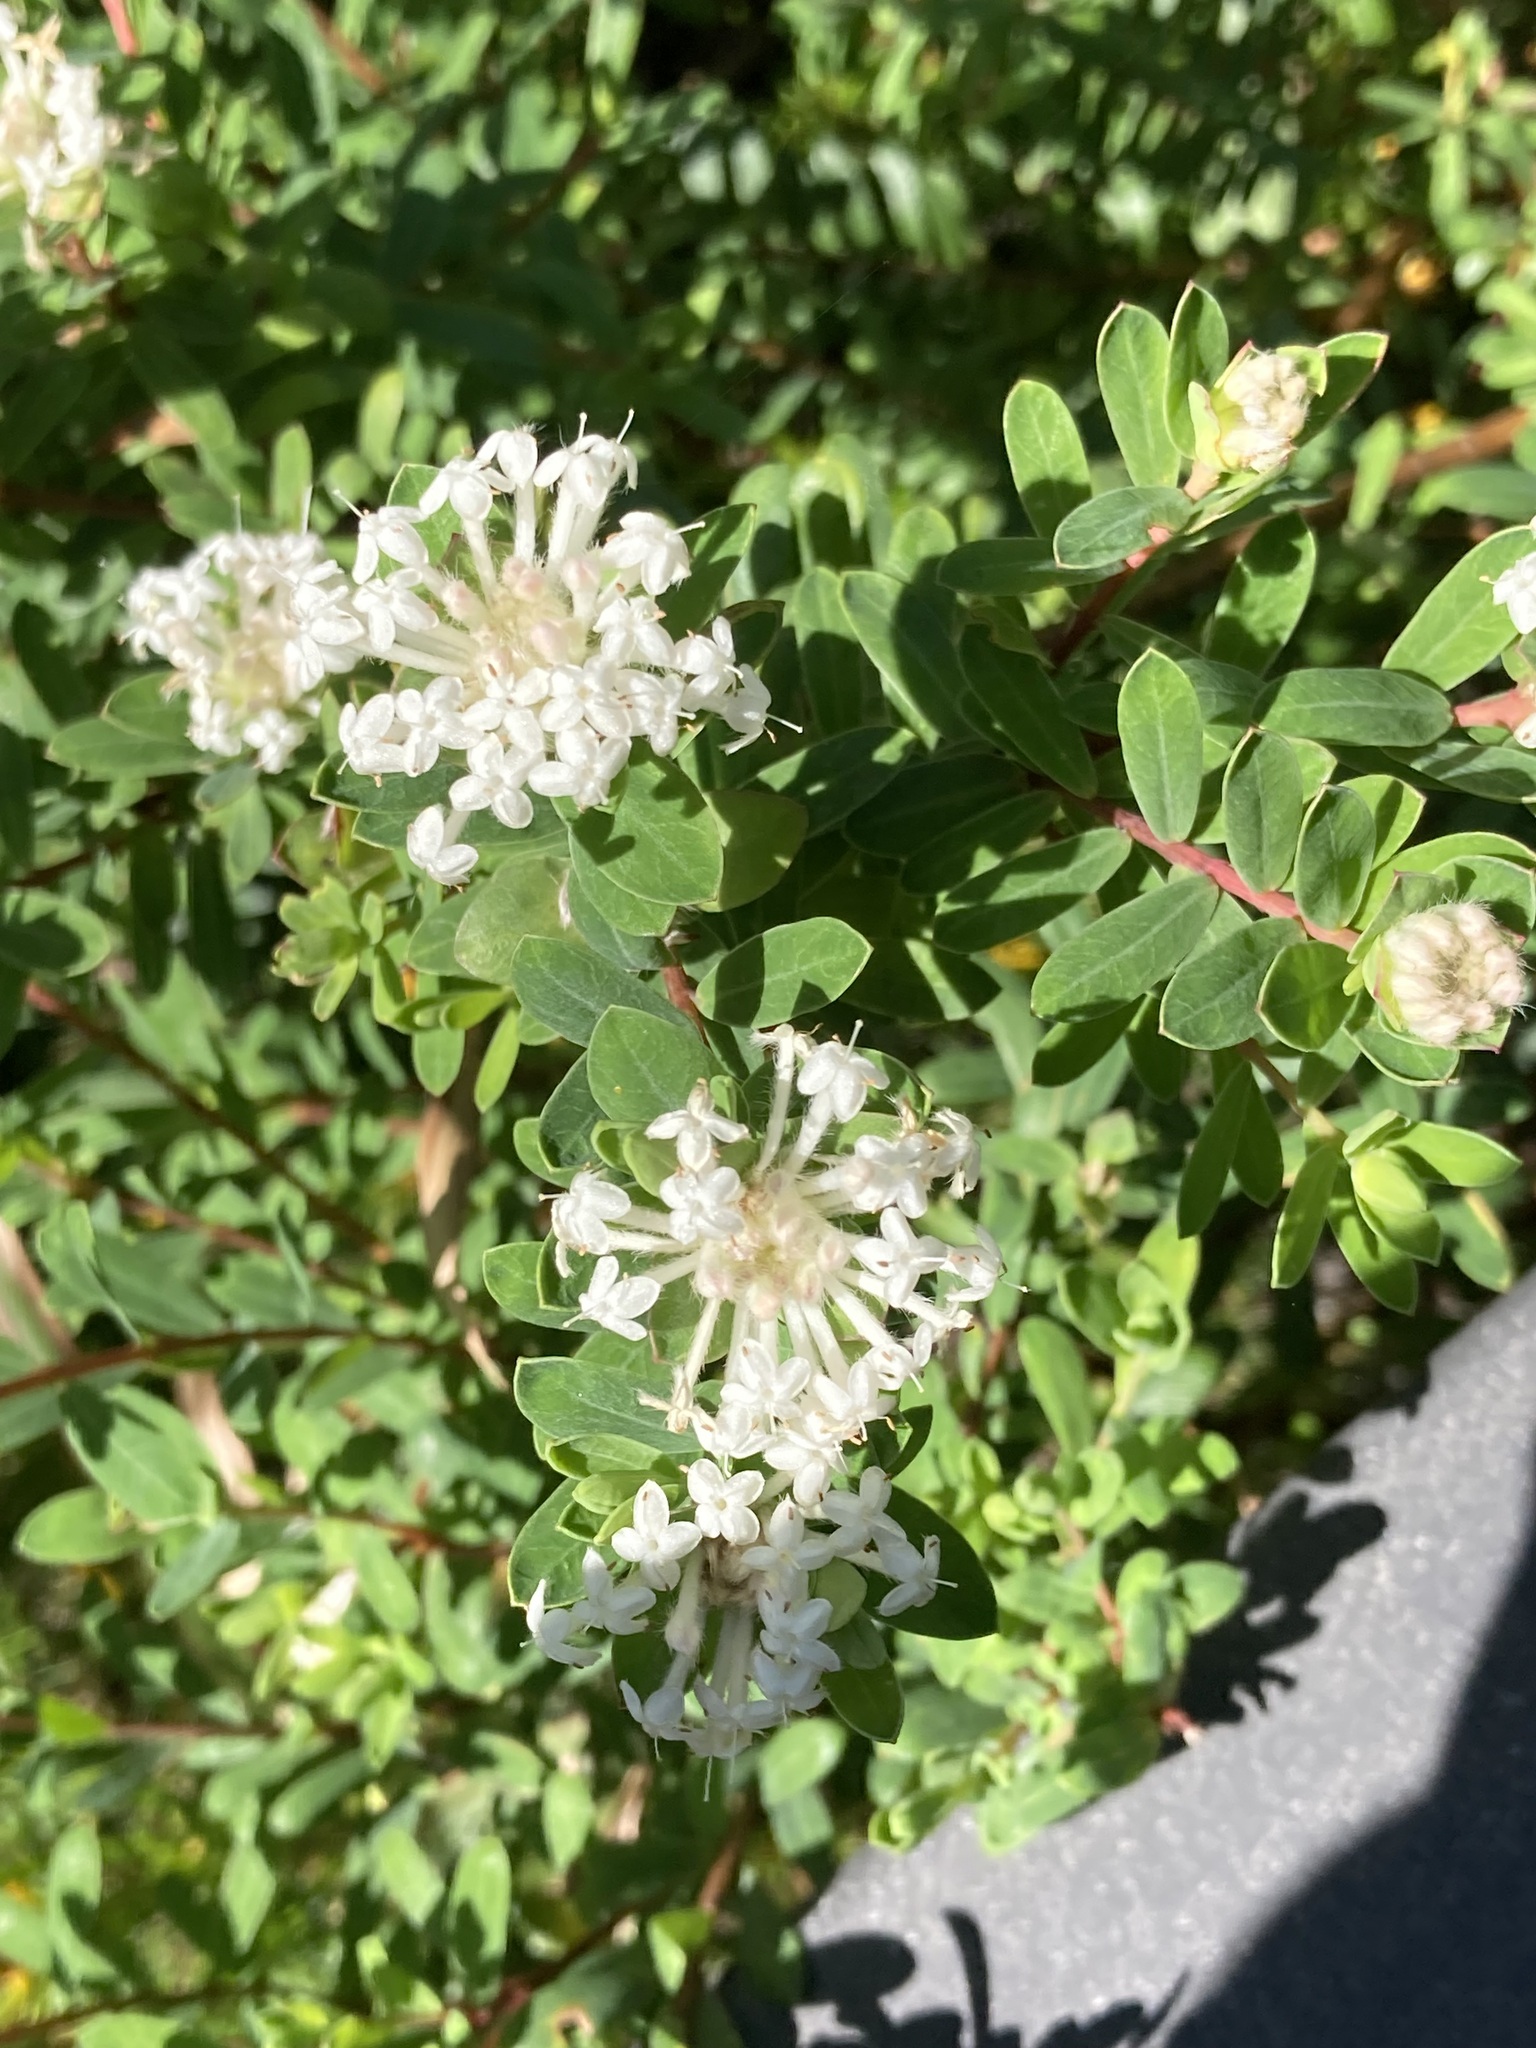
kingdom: Plantae
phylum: Tracheophyta
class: Magnoliopsida
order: Malvales
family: Thymelaeaceae
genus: Pimelea
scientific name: Pimelea linifolia
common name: Queen-of-the-bush
